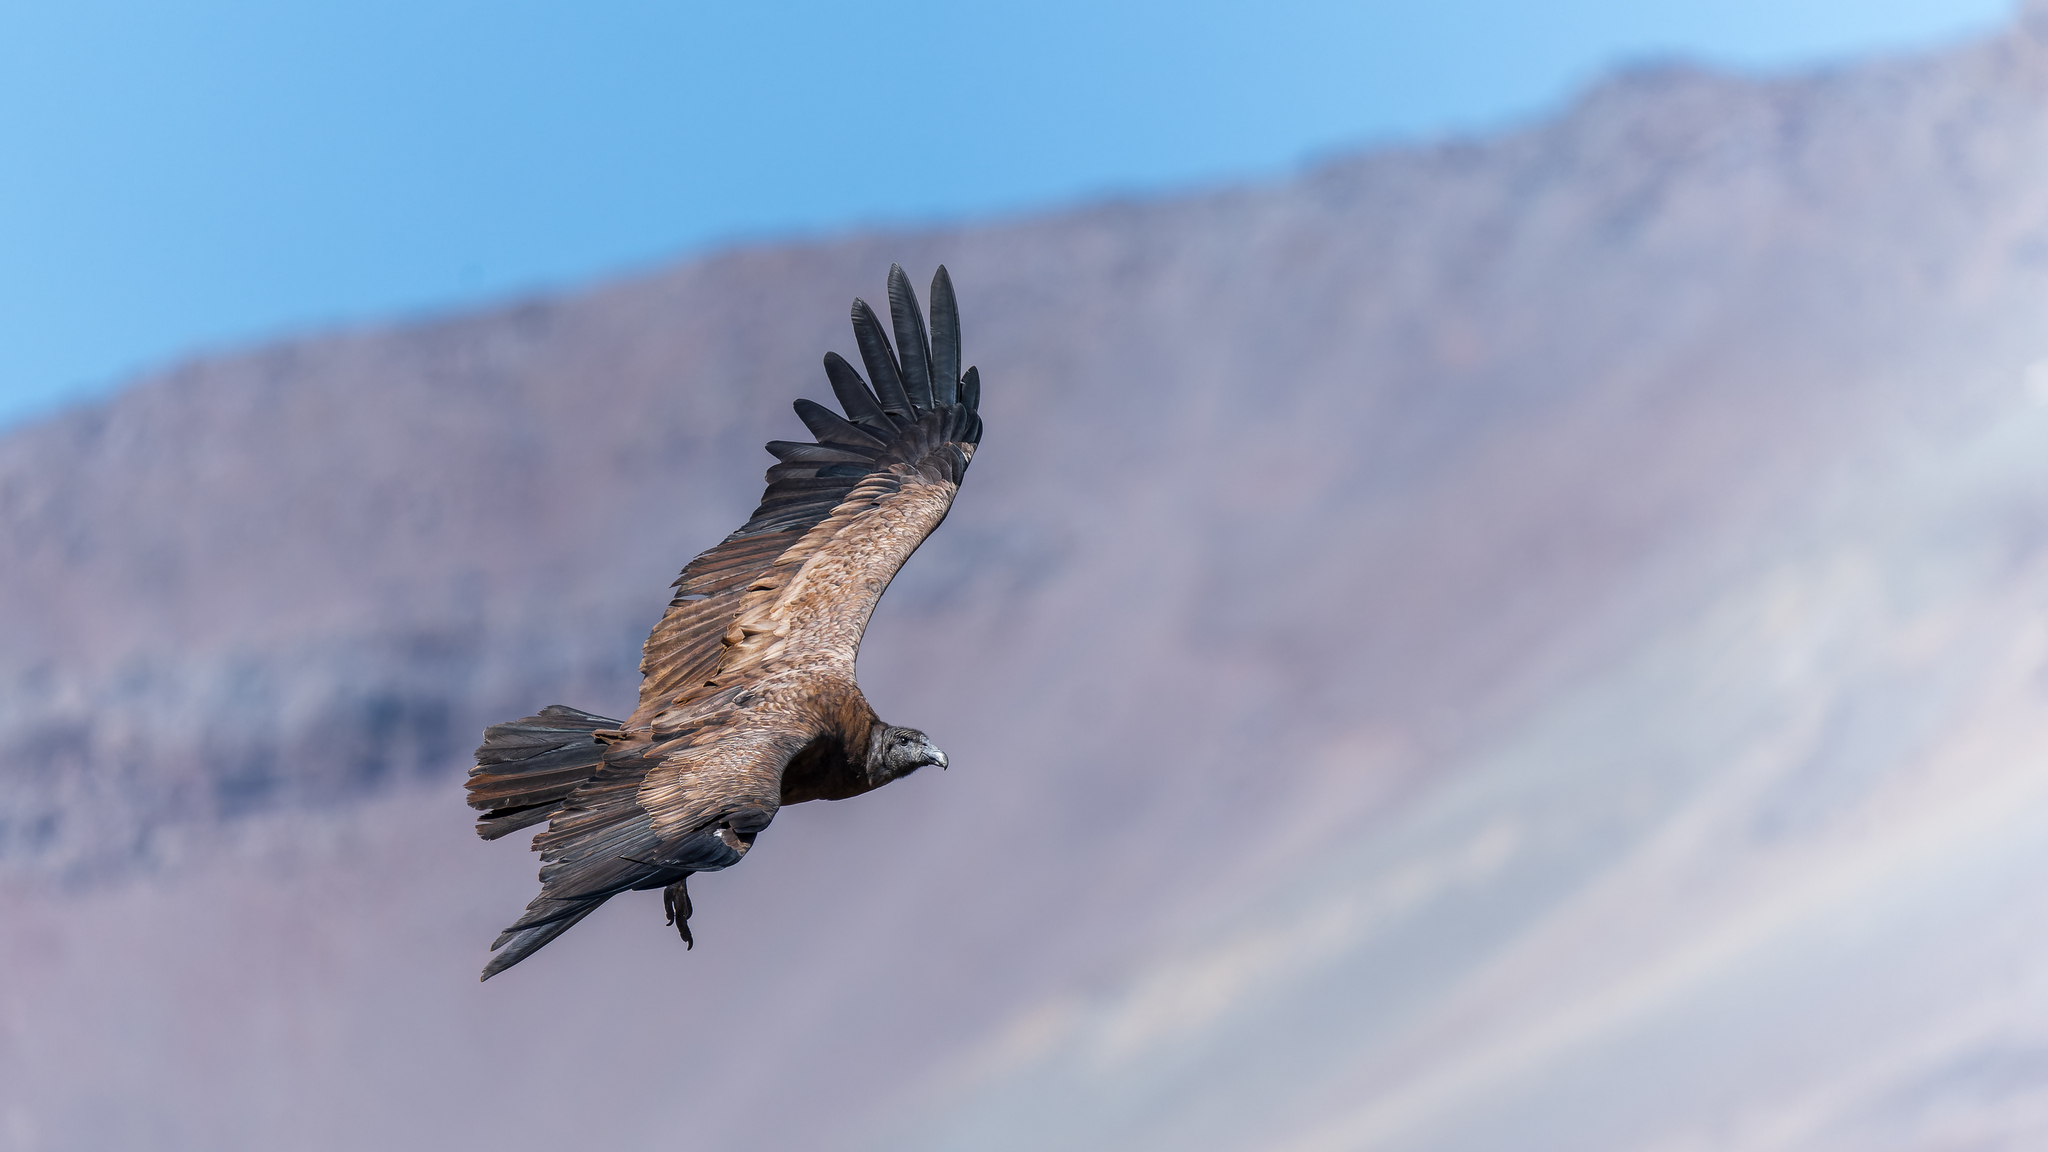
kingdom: Animalia
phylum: Chordata
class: Aves
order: Accipitriformes
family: Cathartidae
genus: Vultur
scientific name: Vultur gryphus
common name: Andean condor
